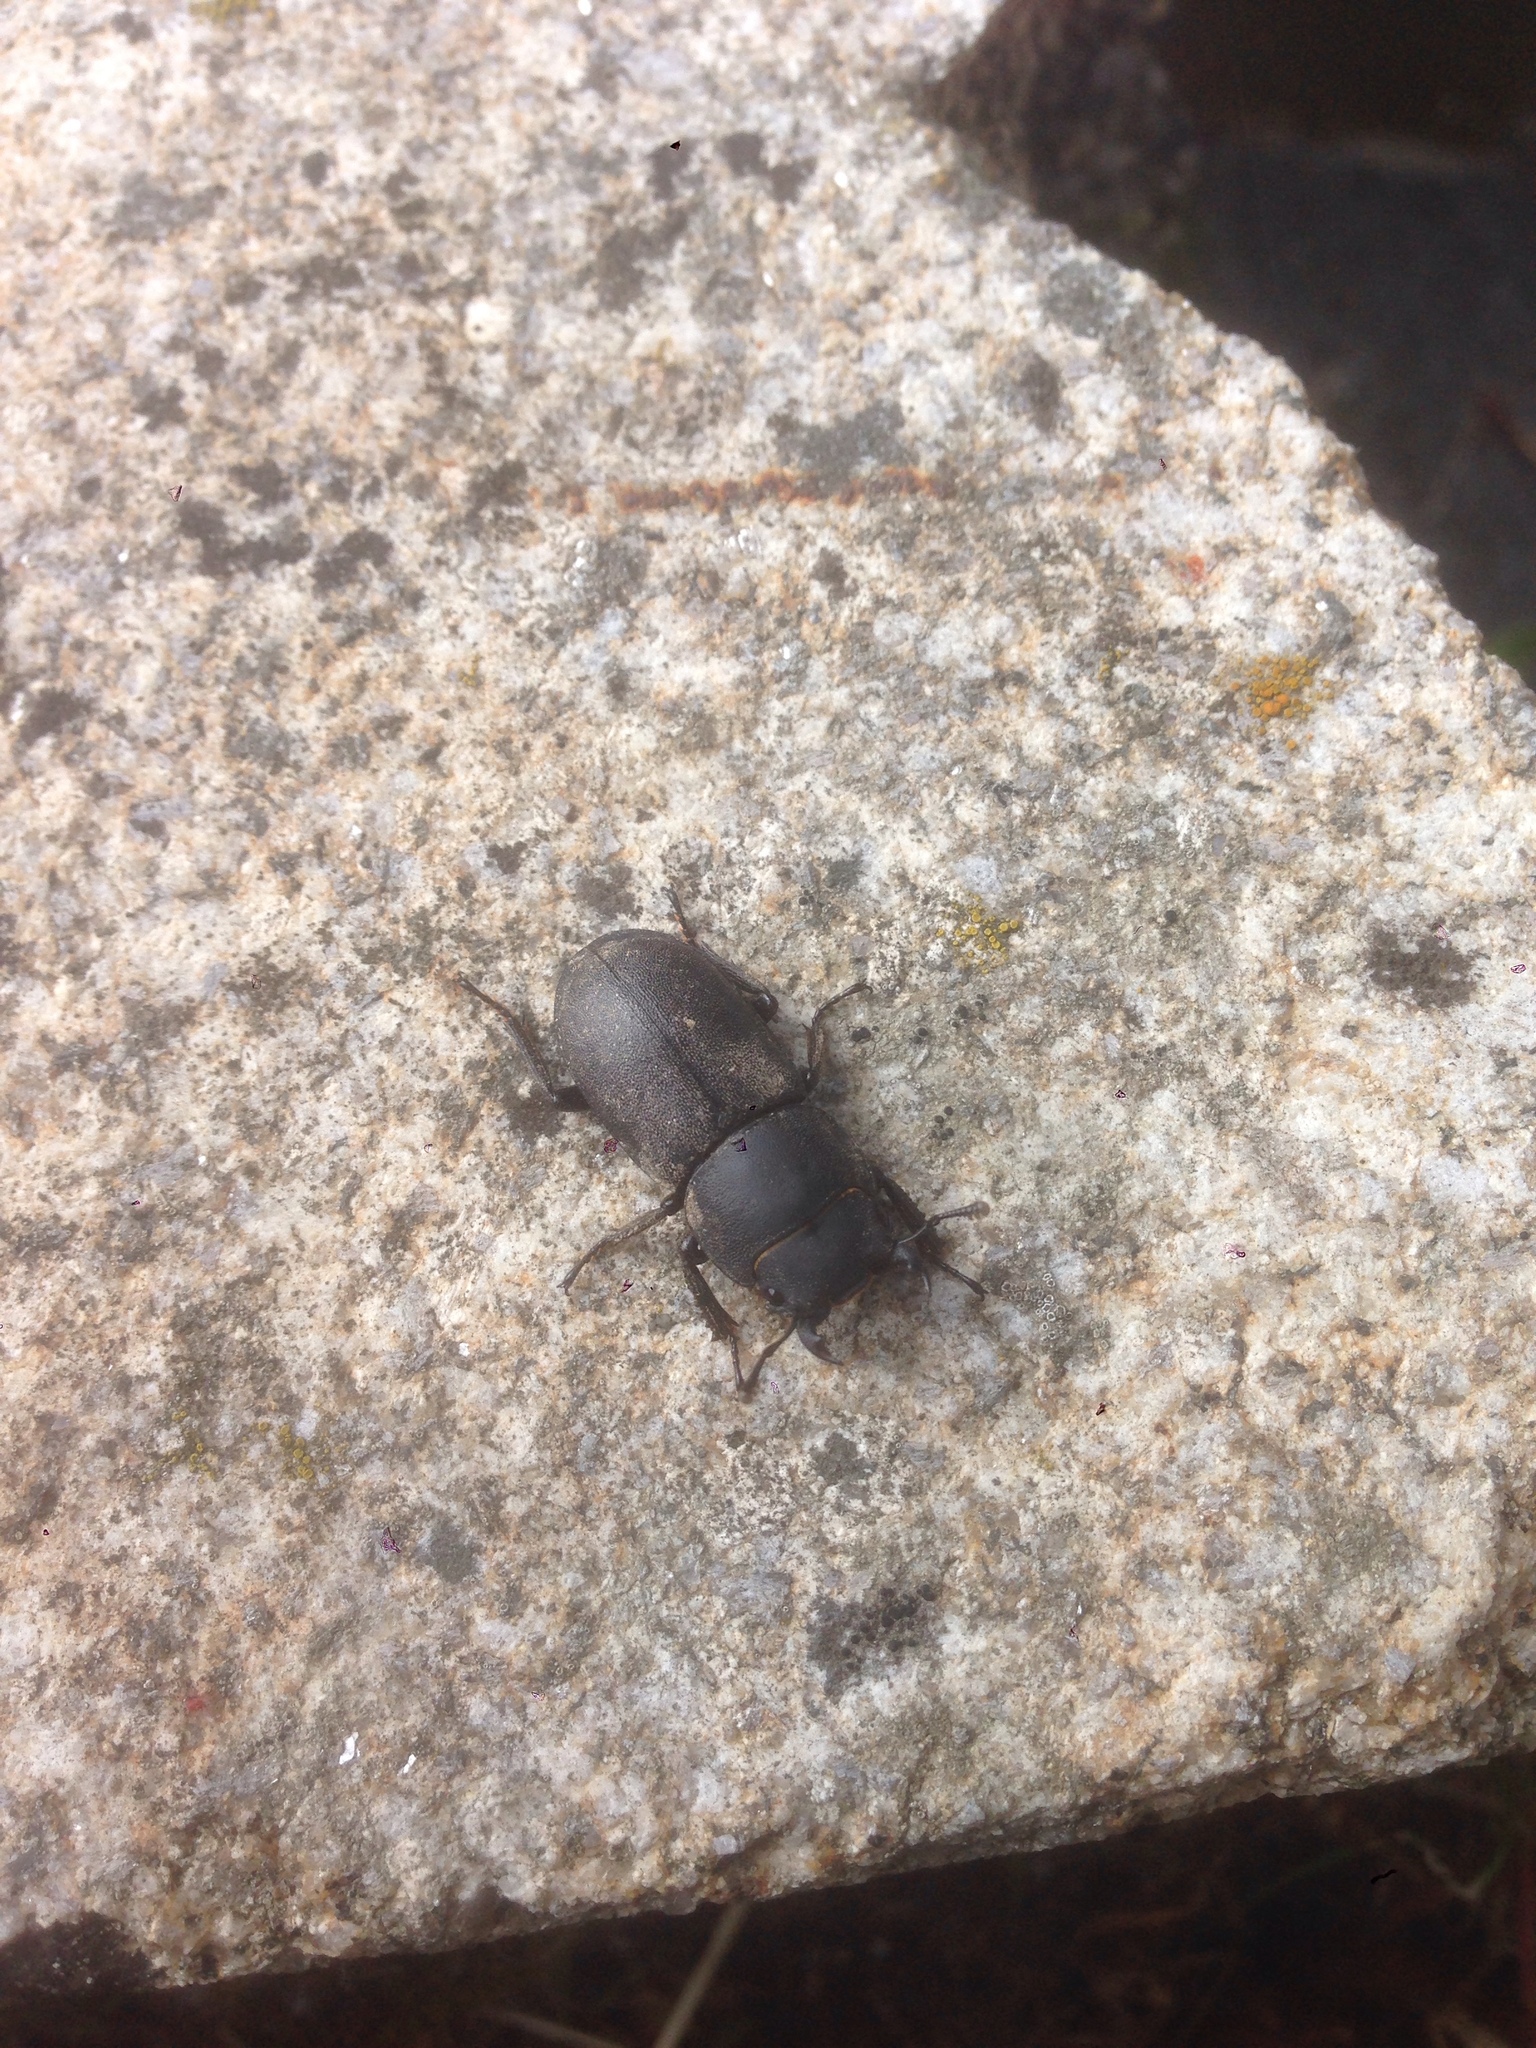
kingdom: Animalia
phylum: Arthropoda
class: Insecta
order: Coleoptera
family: Lucanidae
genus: Dorcus
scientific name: Dorcus parallelipipedus
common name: Lesser stag beetle
